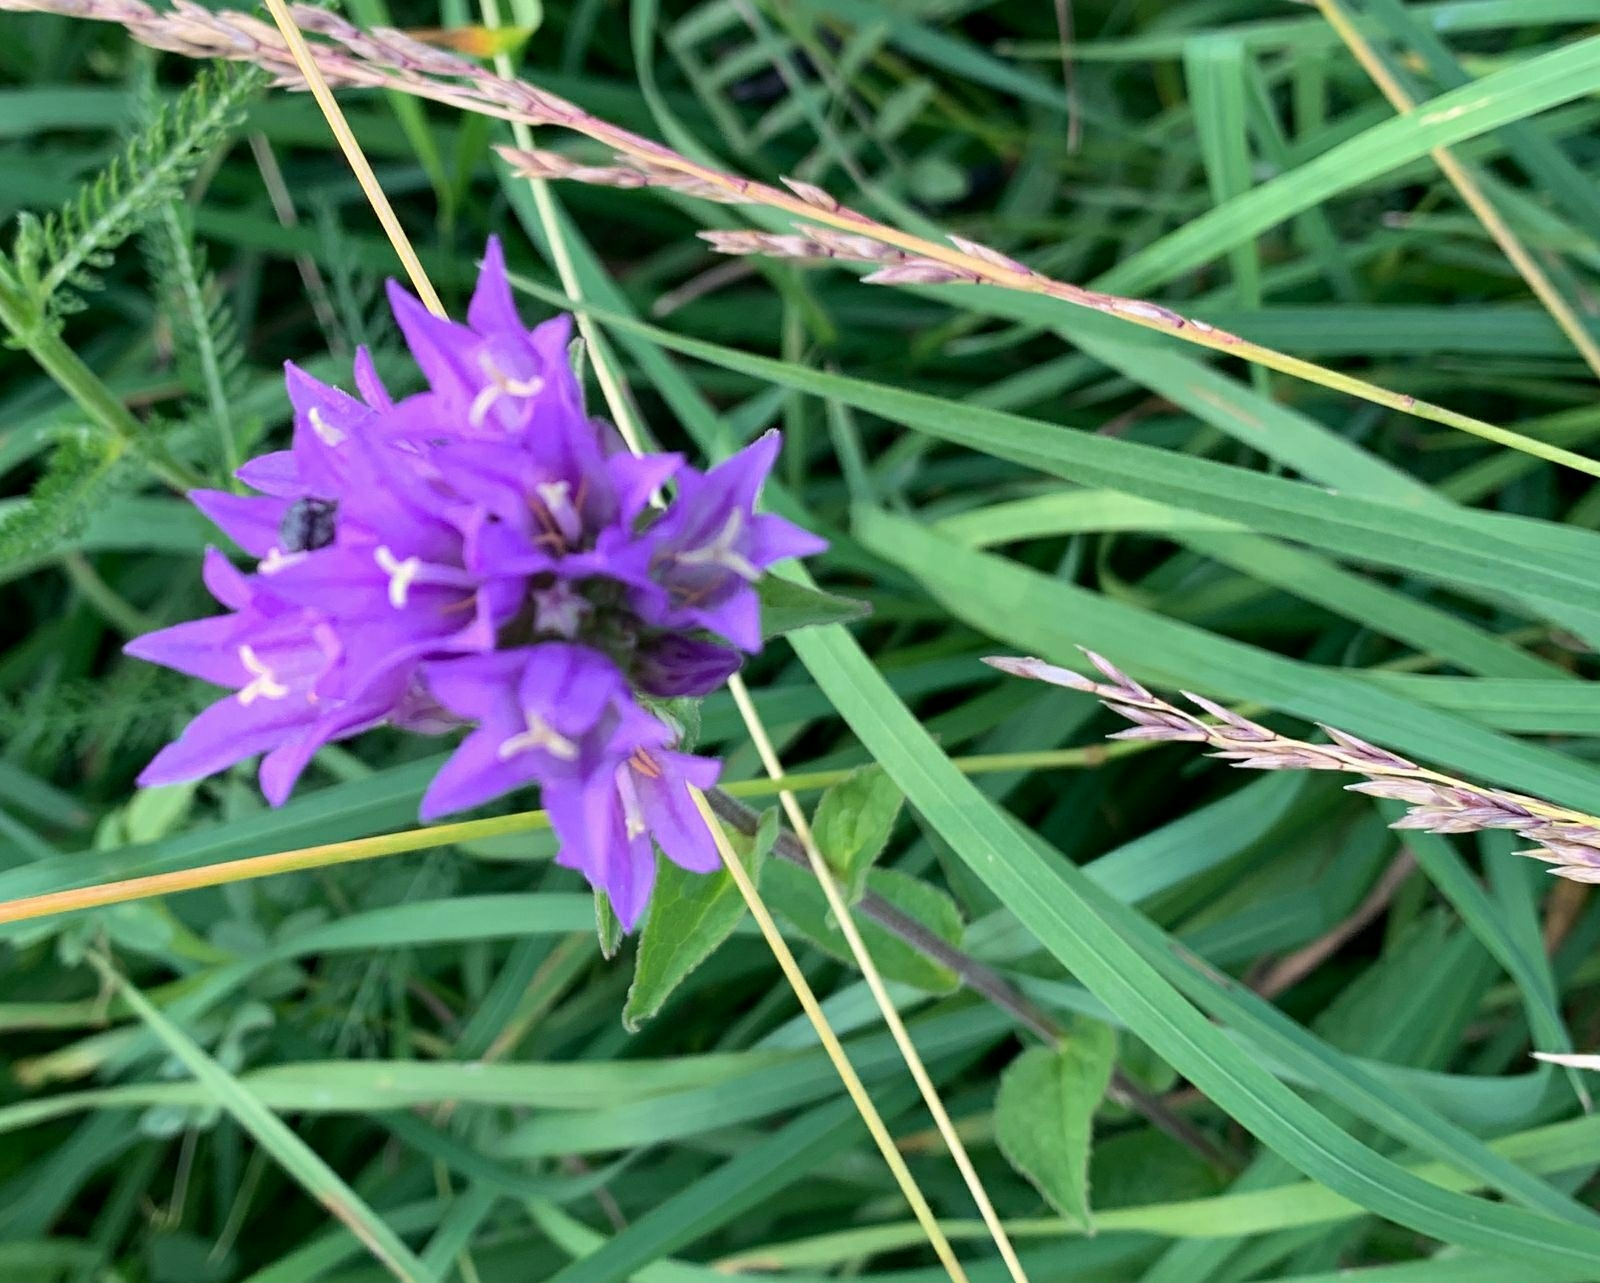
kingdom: Plantae
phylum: Tracheophyta
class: Magnoliopsida
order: Asterales
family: Campanulaceae
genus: Campanula
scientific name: Campanula glomerata
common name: Clustered bellflower
